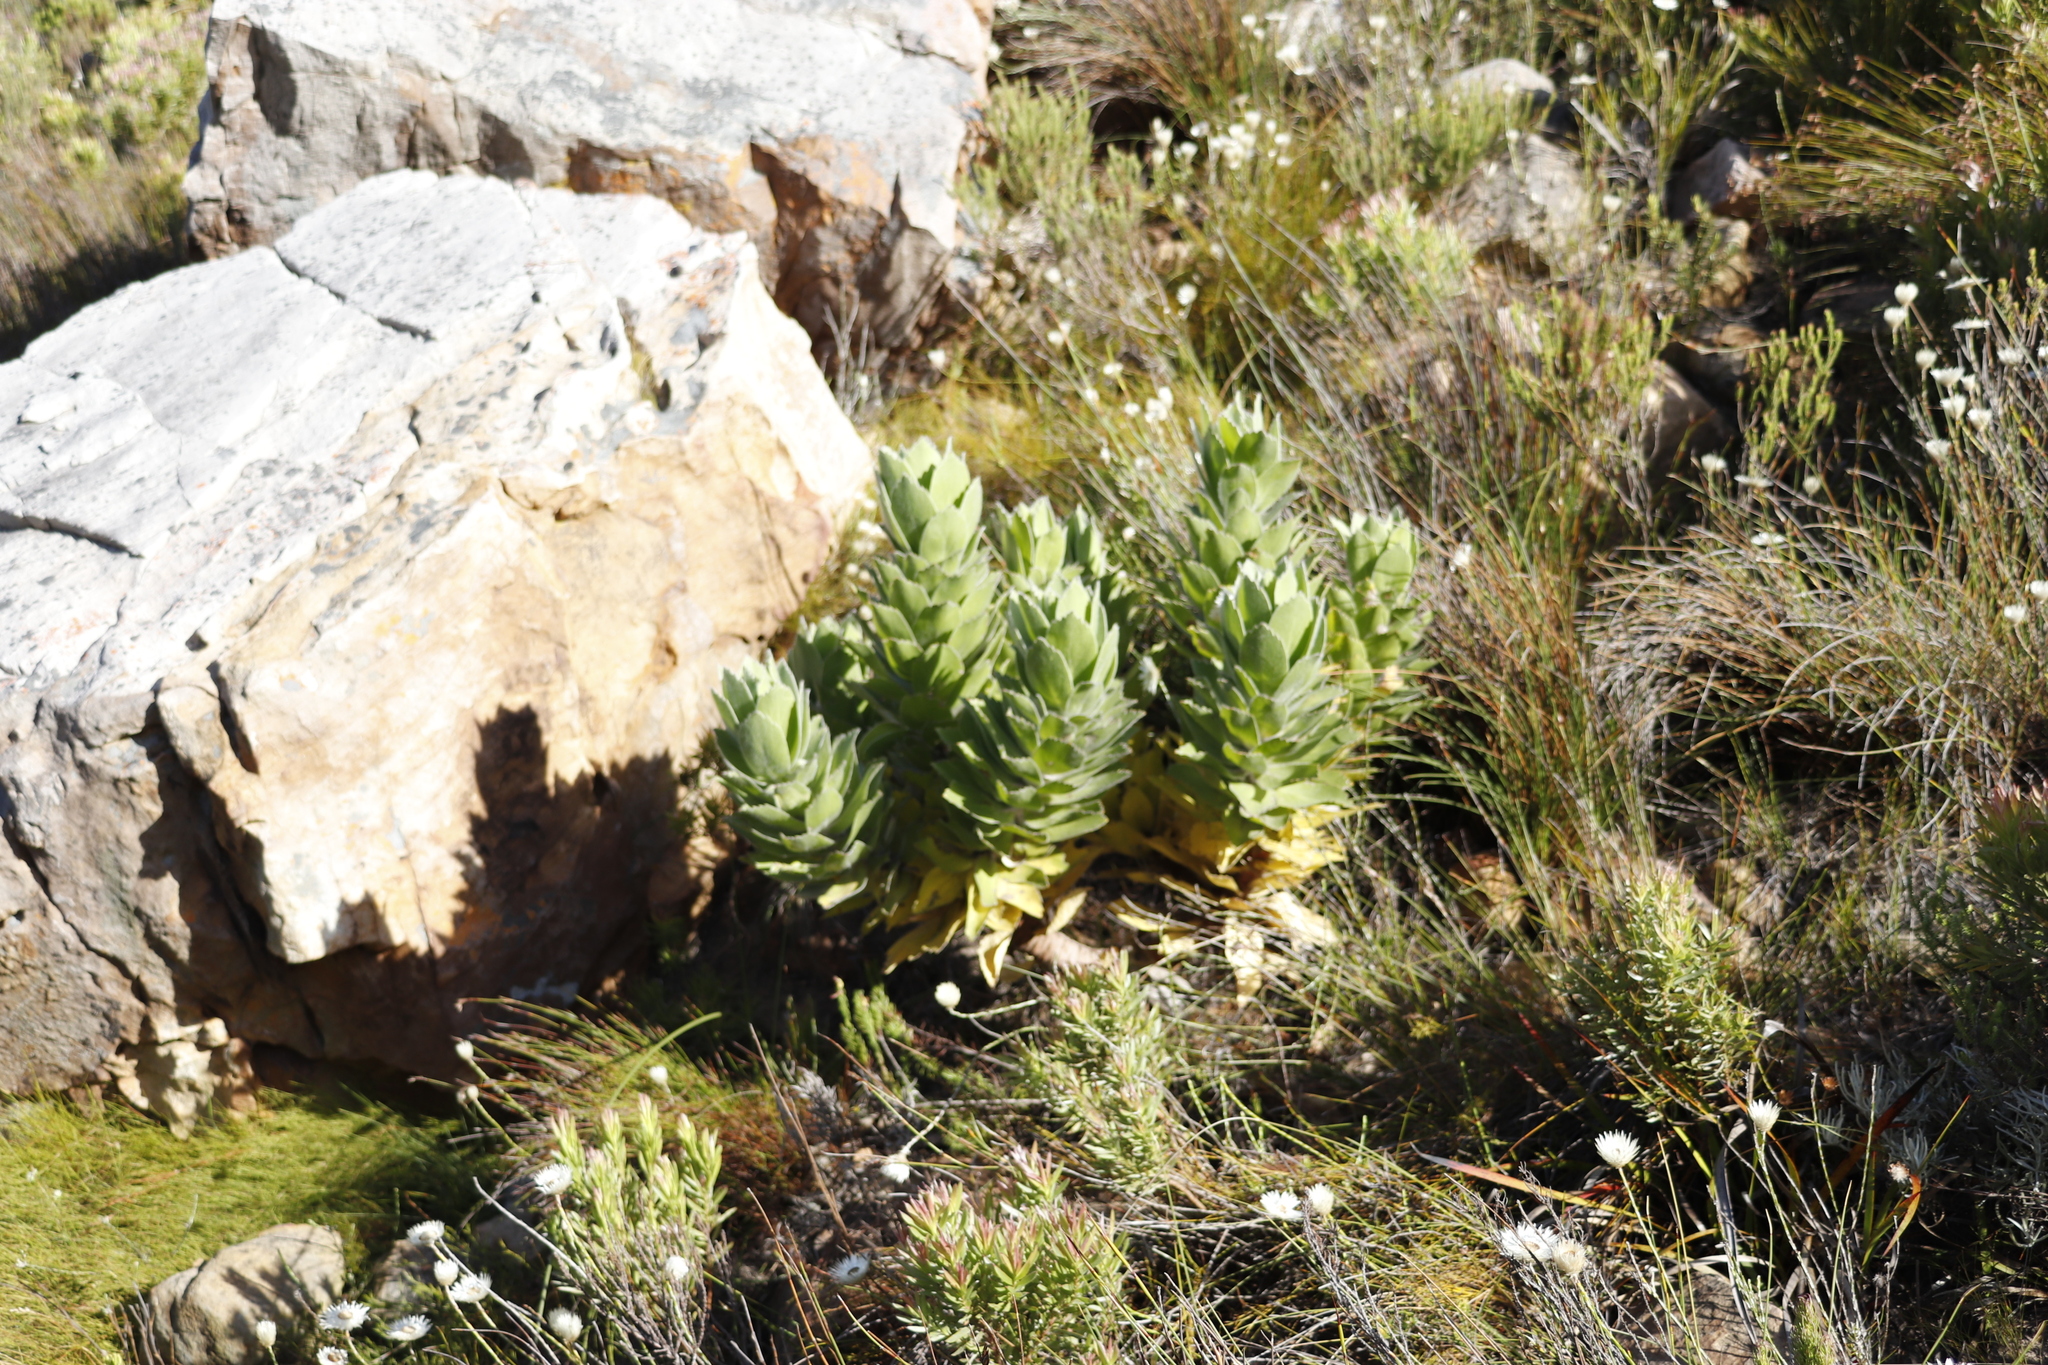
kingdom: Plantae
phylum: Tracheophyta
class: Magnoliopsida
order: Proteales
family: Proteaceae
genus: Leucospermum
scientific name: Leucospermum conocarpodendron
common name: Tree pincushion
